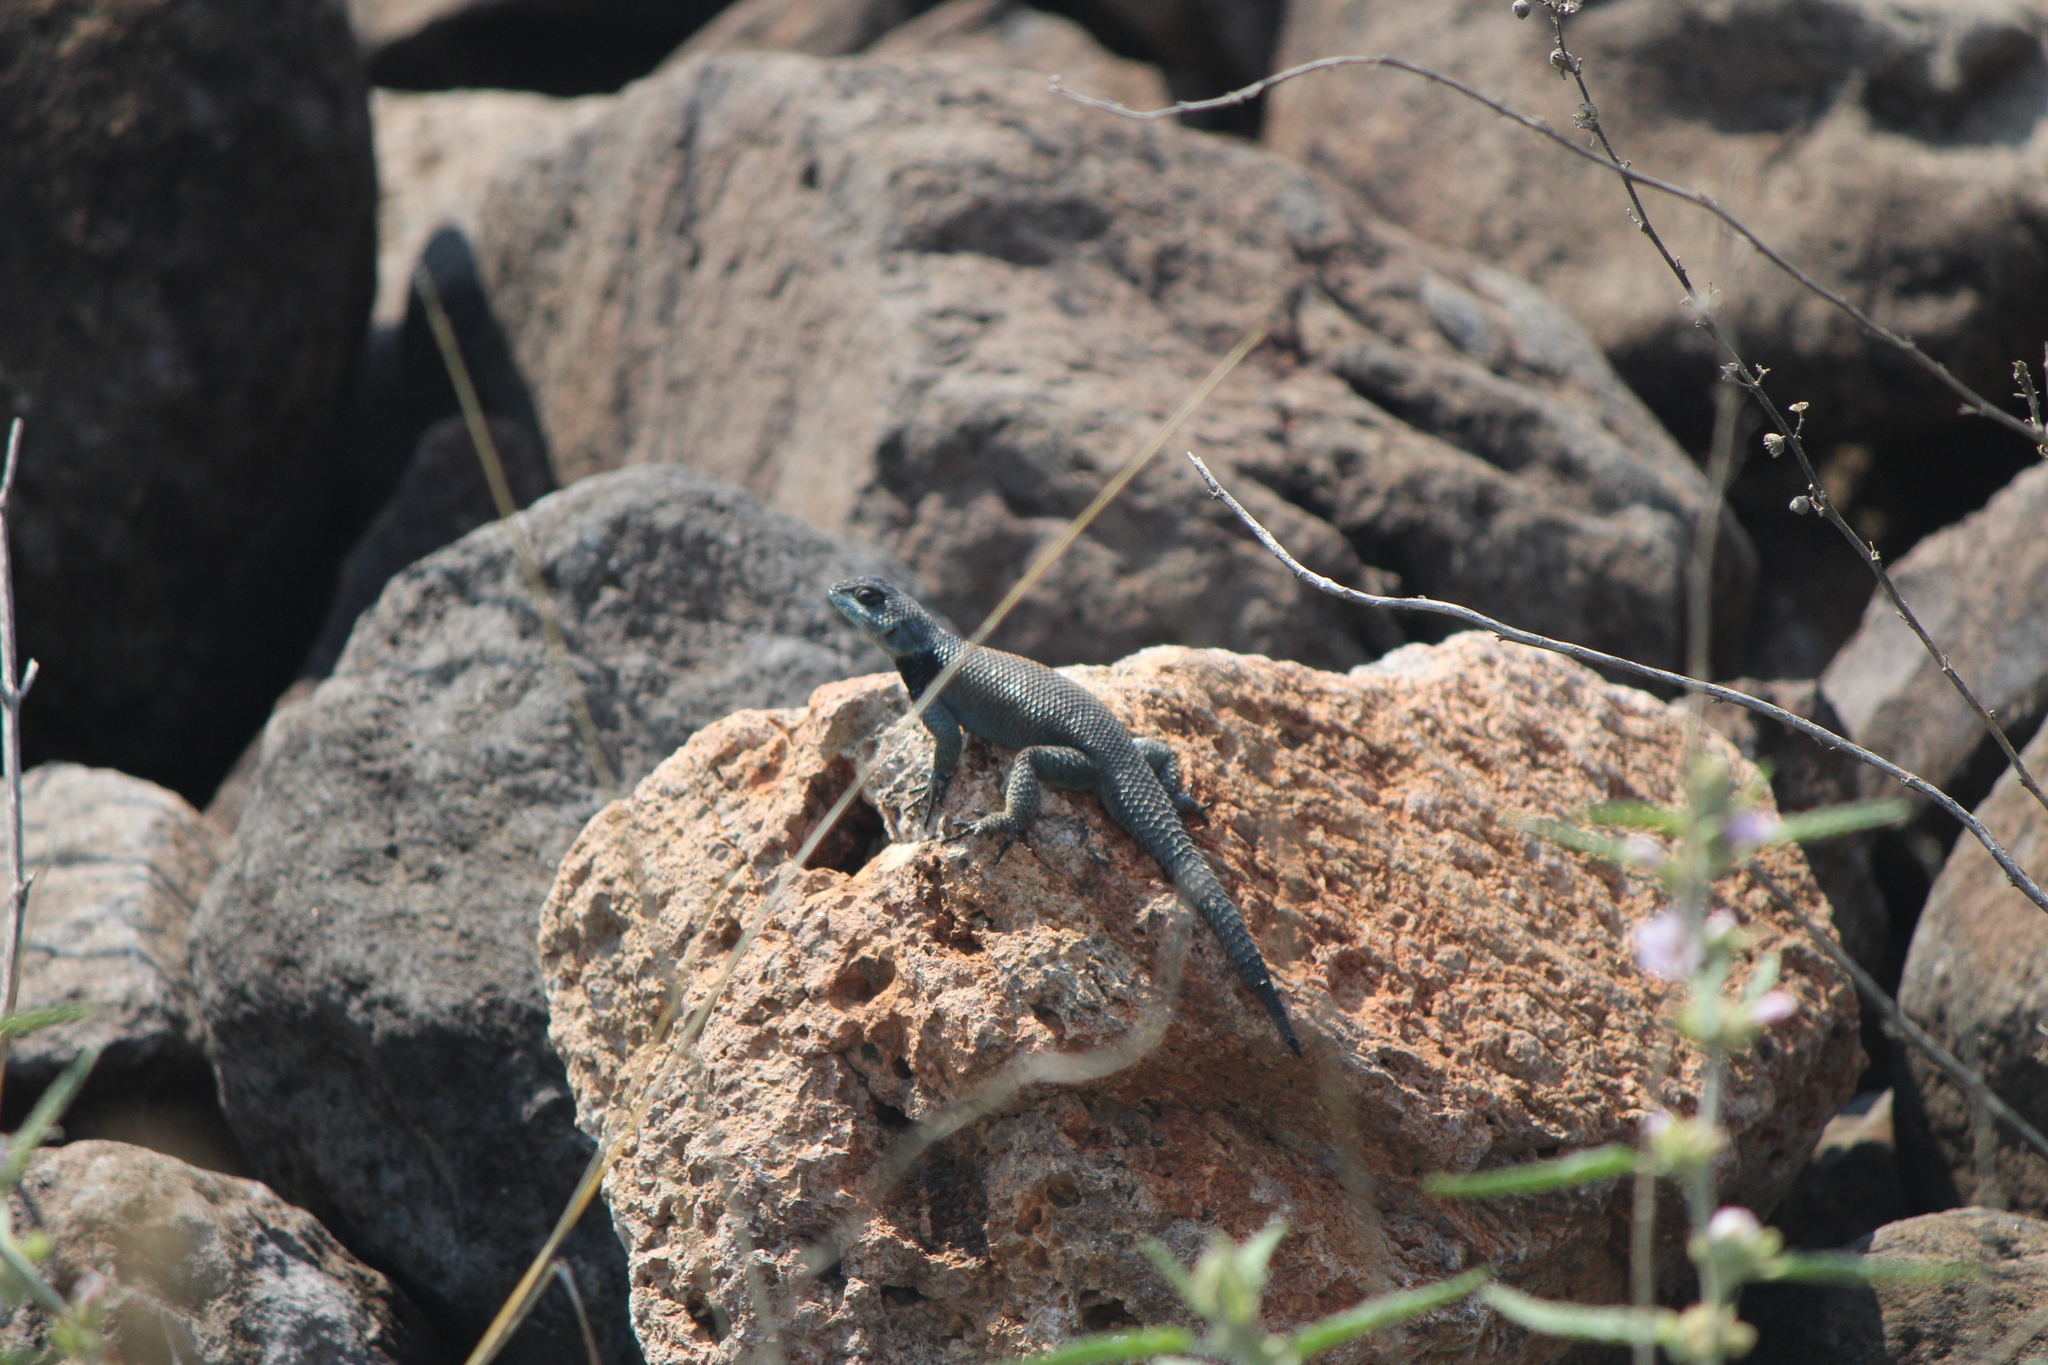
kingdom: Animalia
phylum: Chordata
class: Squamata
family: Phrynosomatidae
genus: Sceloporus
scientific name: Sceloporus minor
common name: Minor lizard
